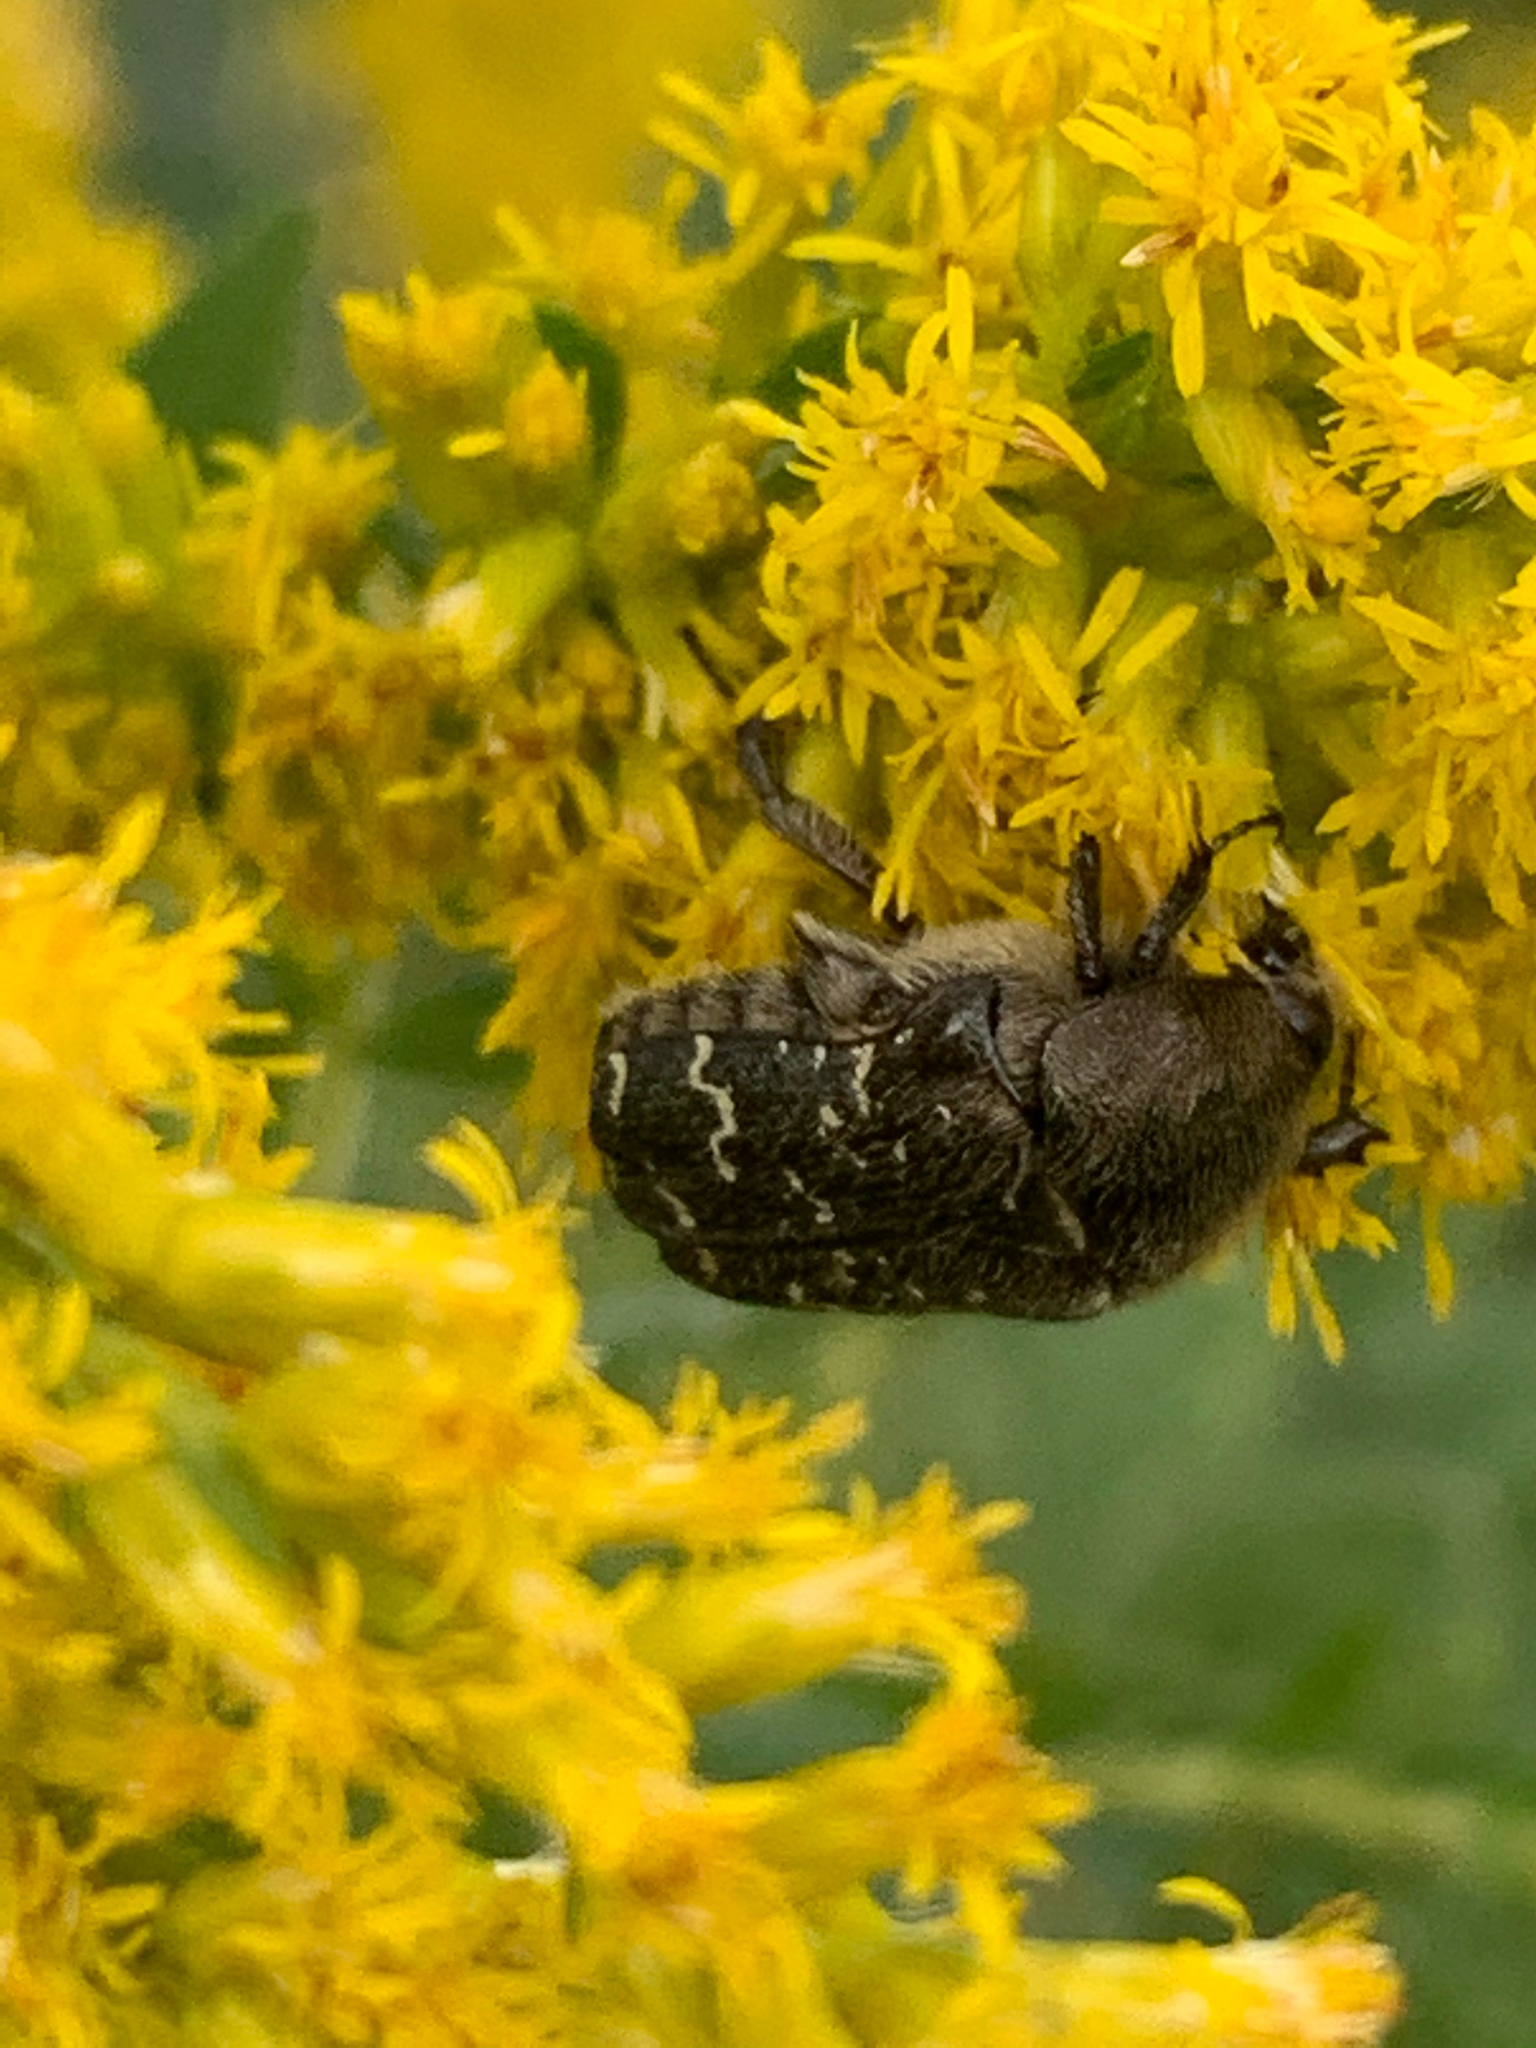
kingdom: Animalia
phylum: Arthropoda
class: Insecta
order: Coleoptera
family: Scarabaeidae
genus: Euphoria
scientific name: Euphoria sepulcralis
